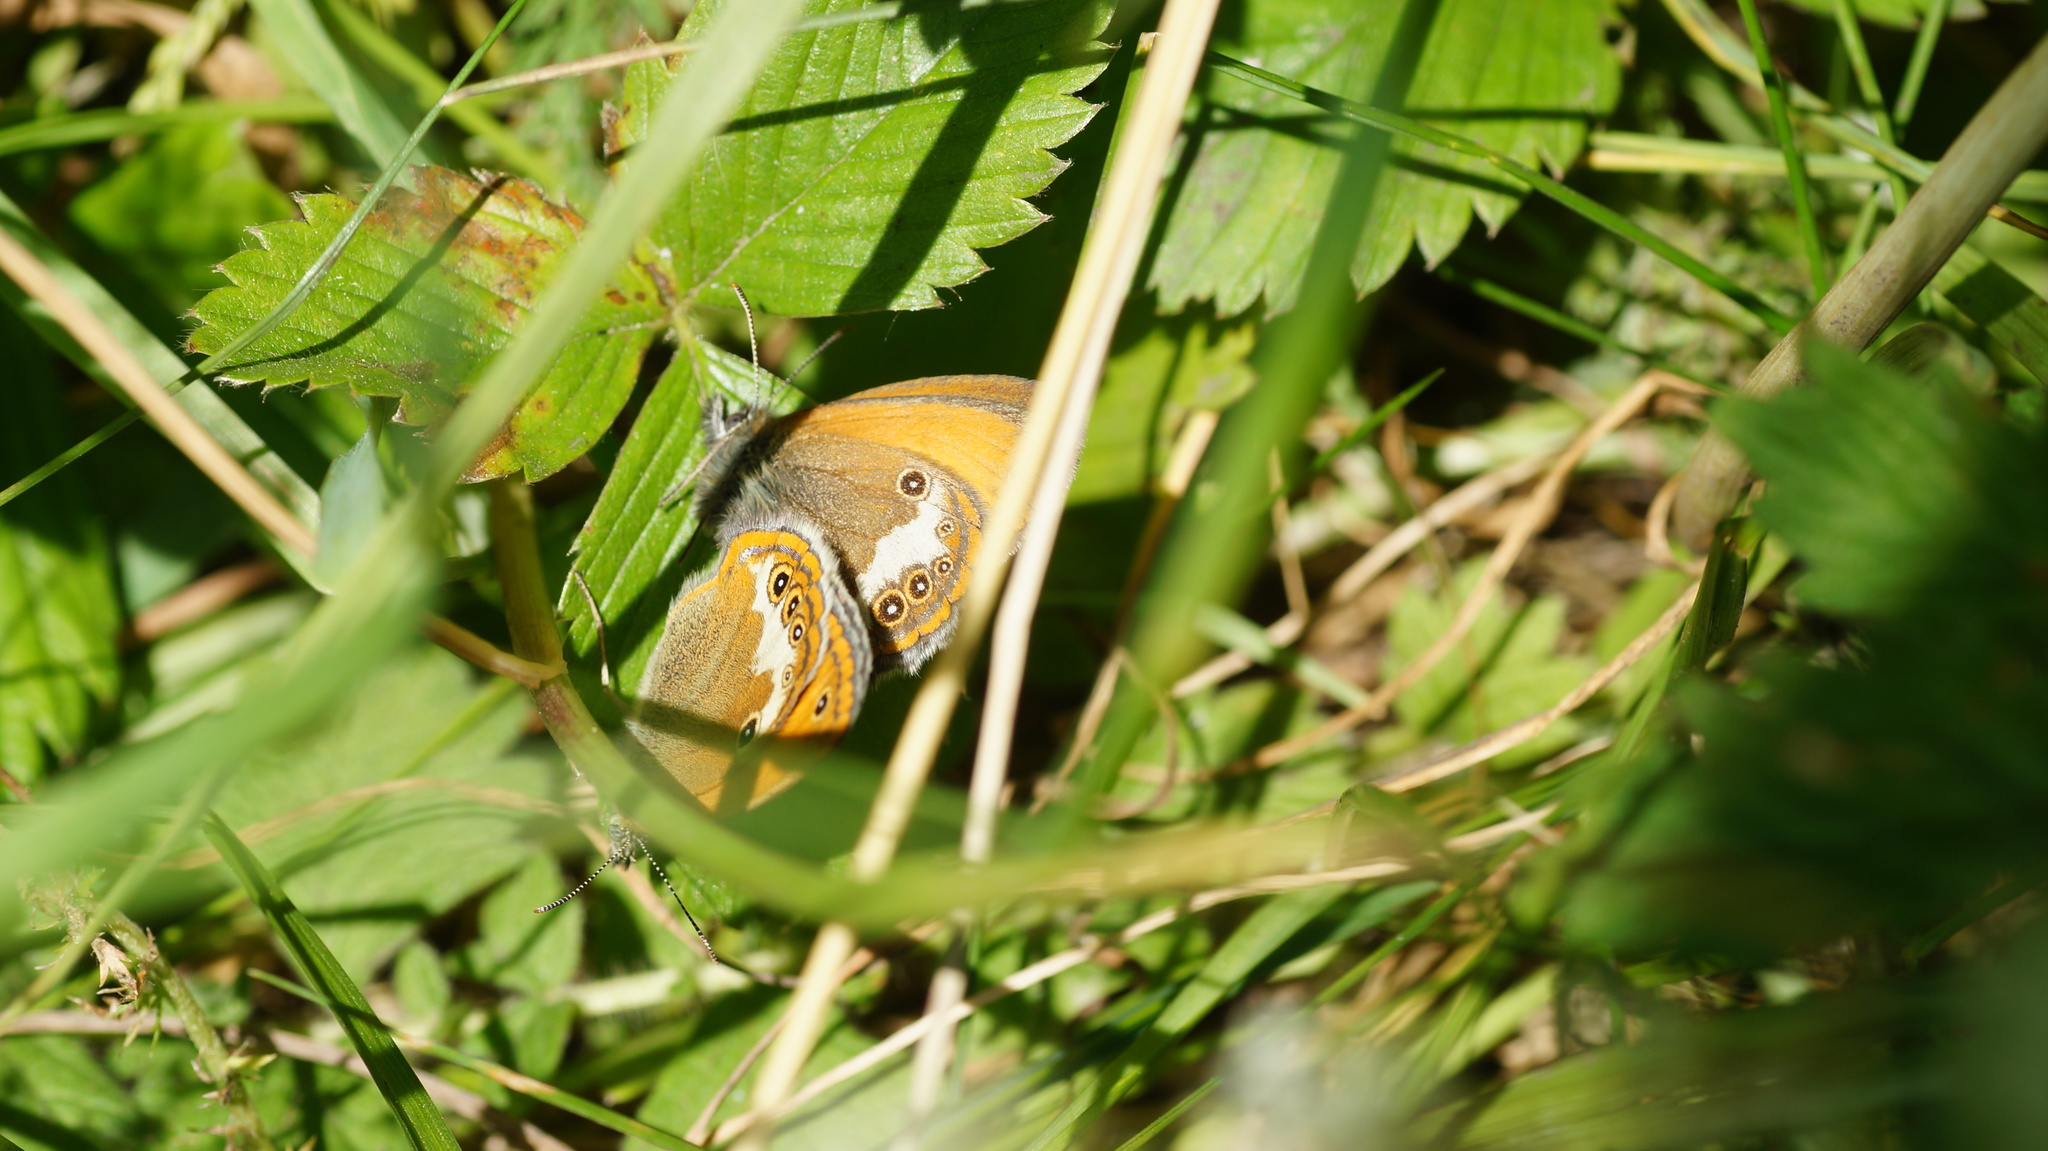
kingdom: Animalia
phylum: Arthropoda
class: Insecta
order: Lepidoptera
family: Nymphalidae
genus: Coenonympha
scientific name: Coenonympha arcania
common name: Pearly heath
